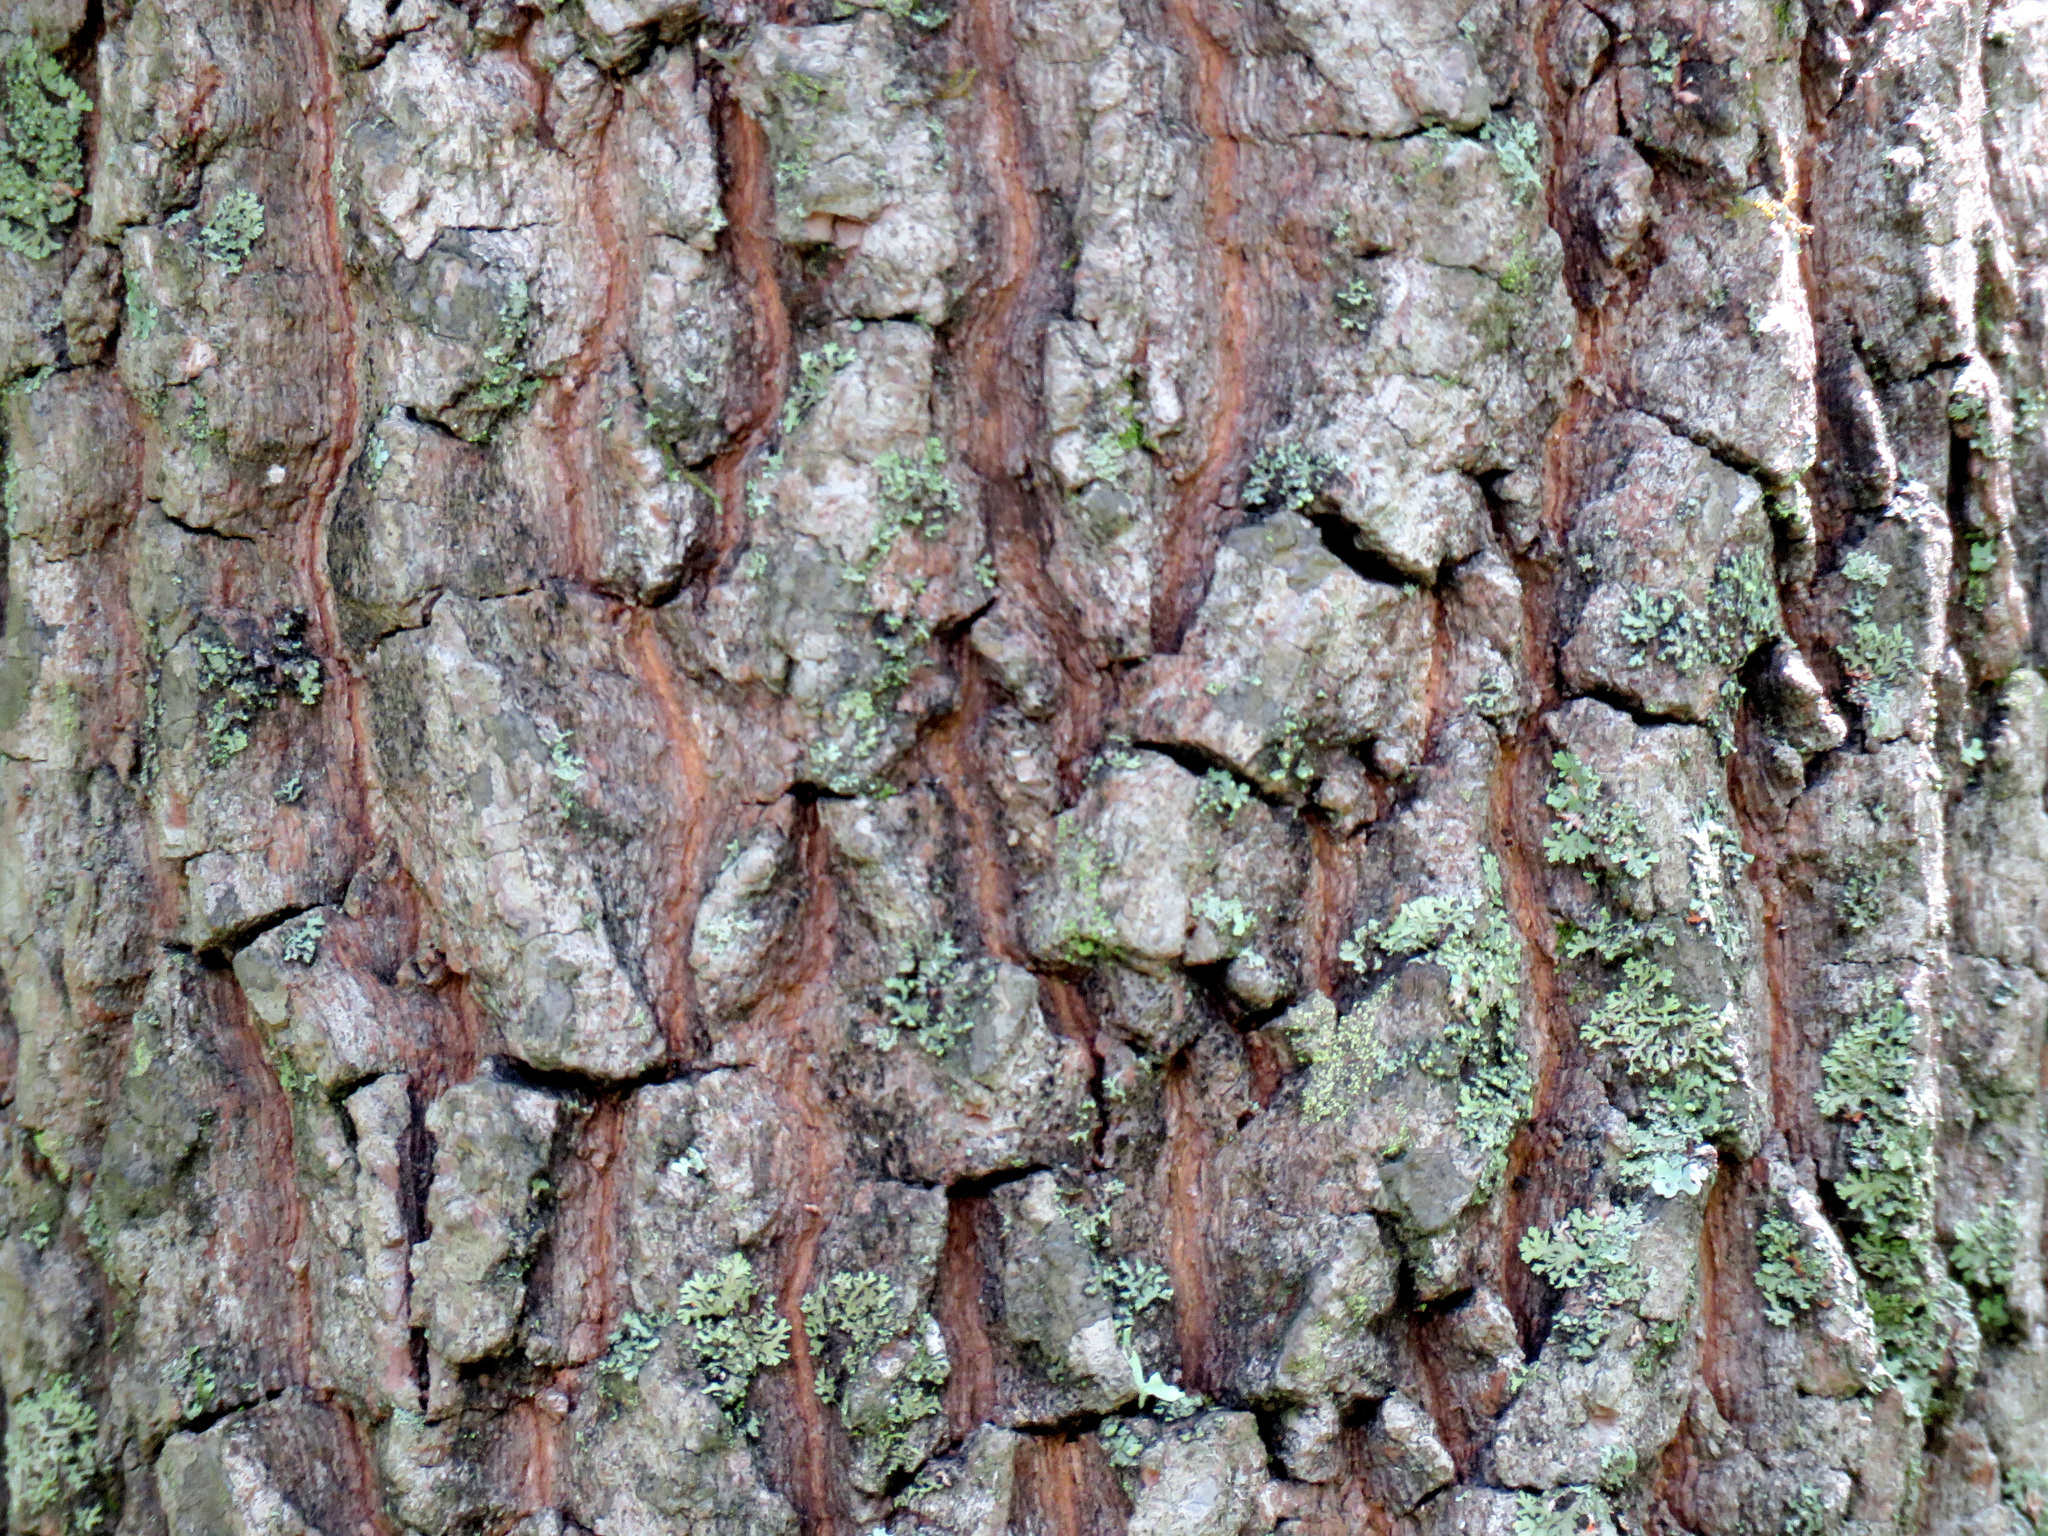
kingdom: Plantae
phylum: Tracheophyta
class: Magnoliopsida
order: Ericales
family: Ebenaceae
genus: Diospyros
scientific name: Diospyros virginiana
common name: Persimmon
